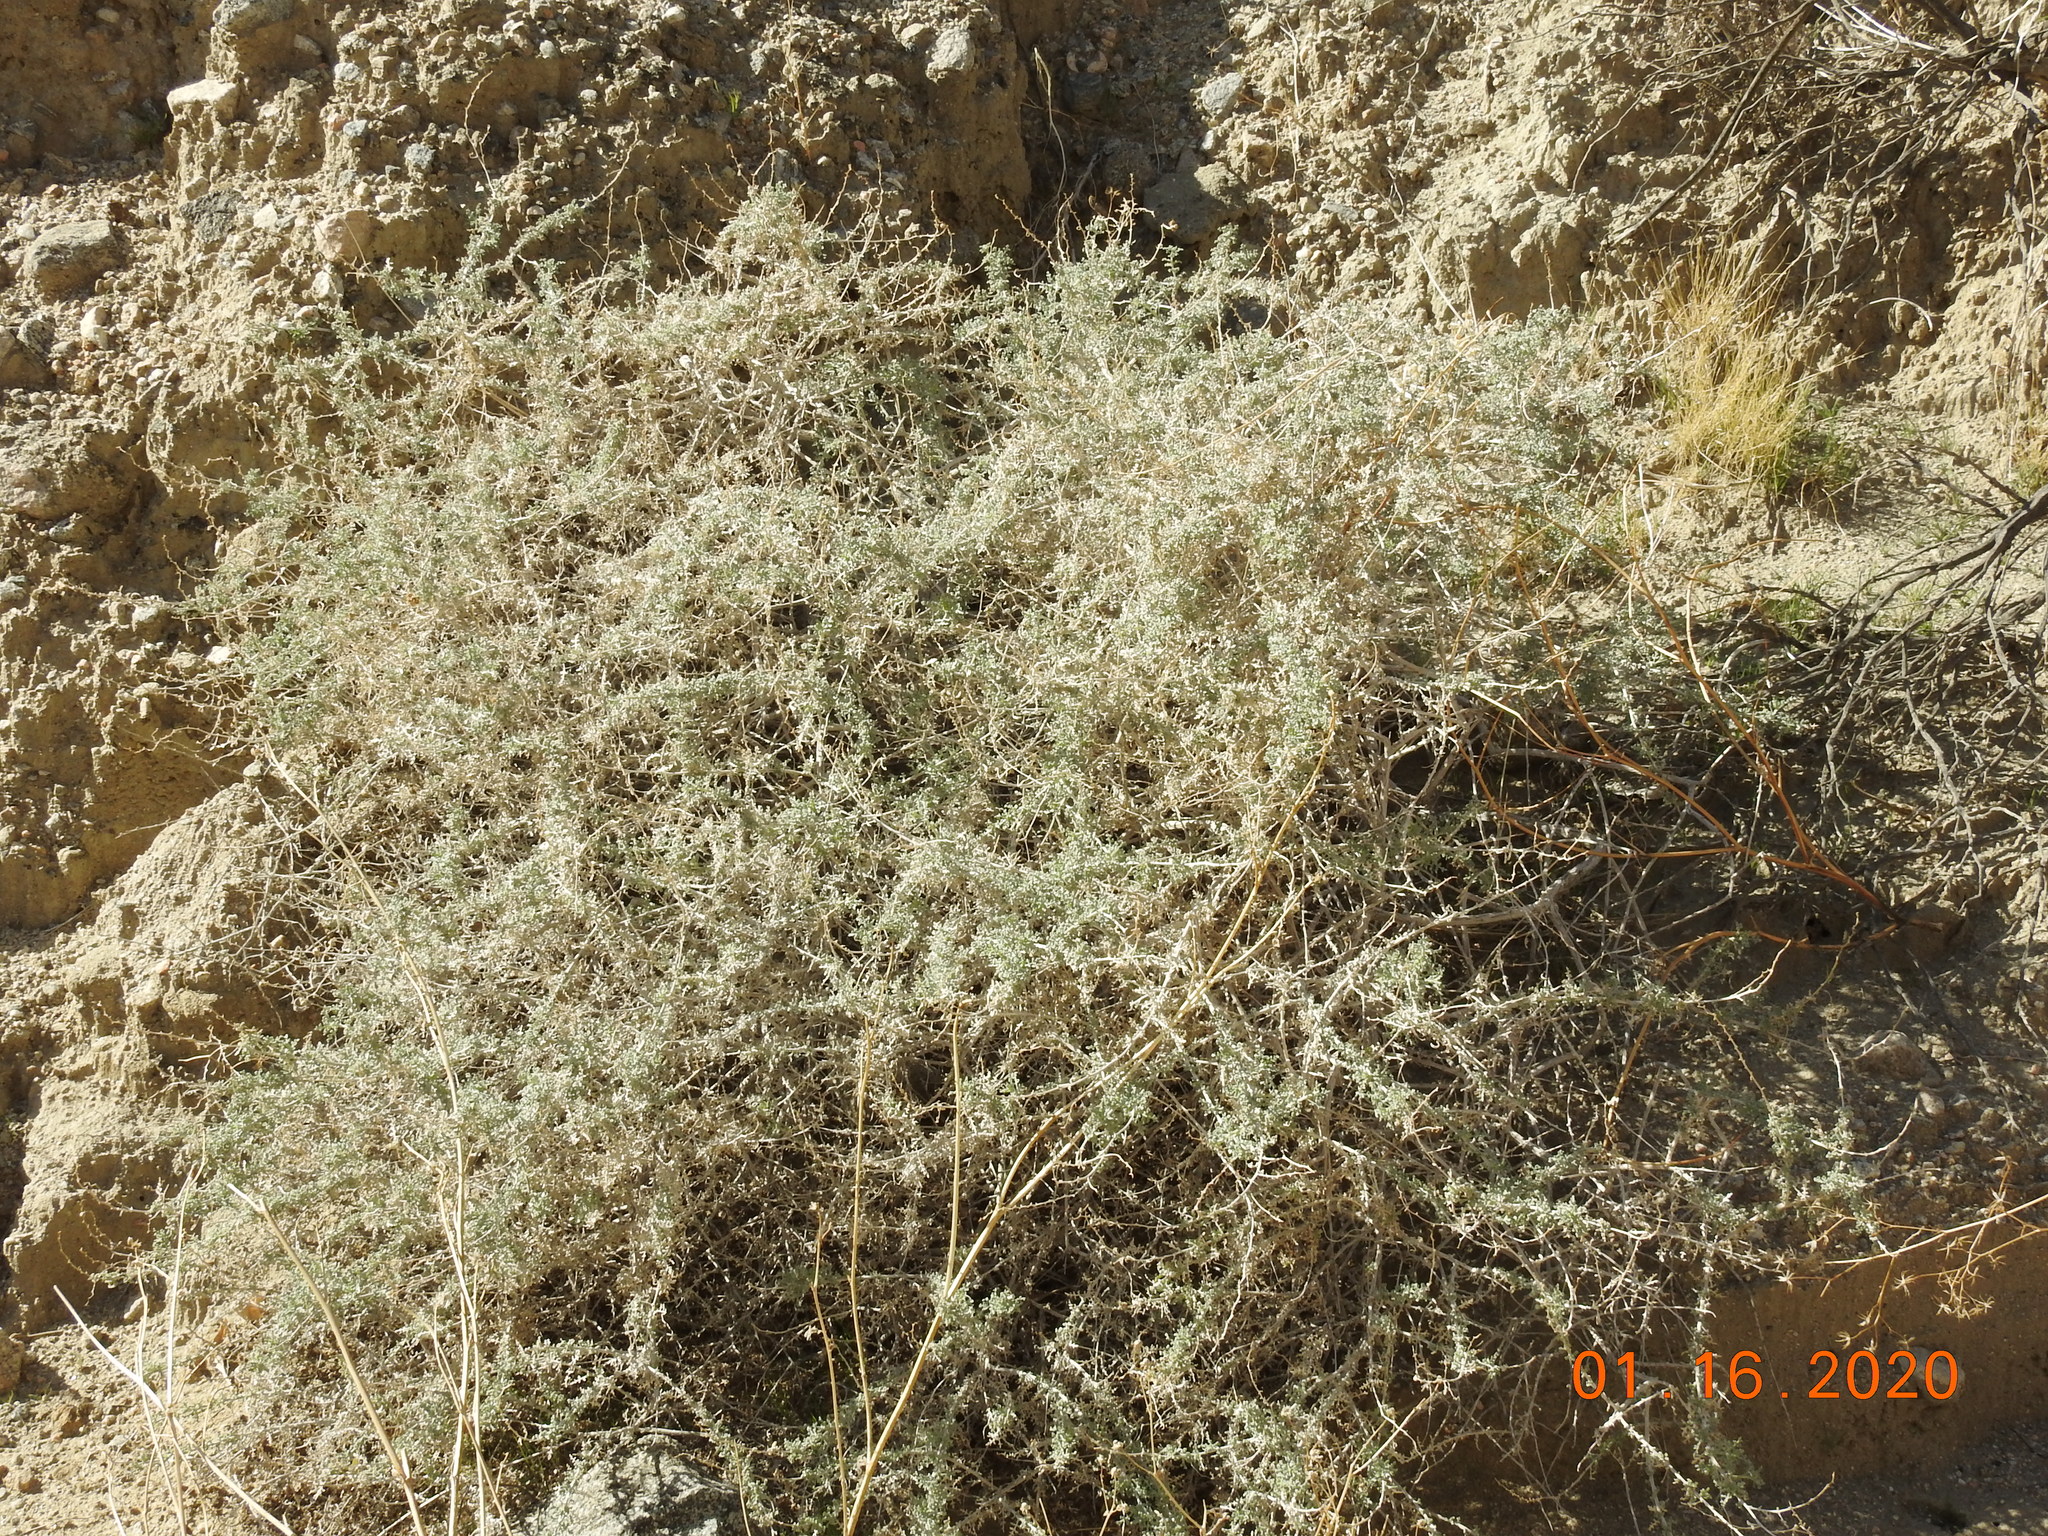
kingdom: Plantae
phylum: Tracheophyta
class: Magnoliopsida
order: Asterales
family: Asteraceae
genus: Ambrosia
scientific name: Ambrosia dumosa
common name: Bur-sage
